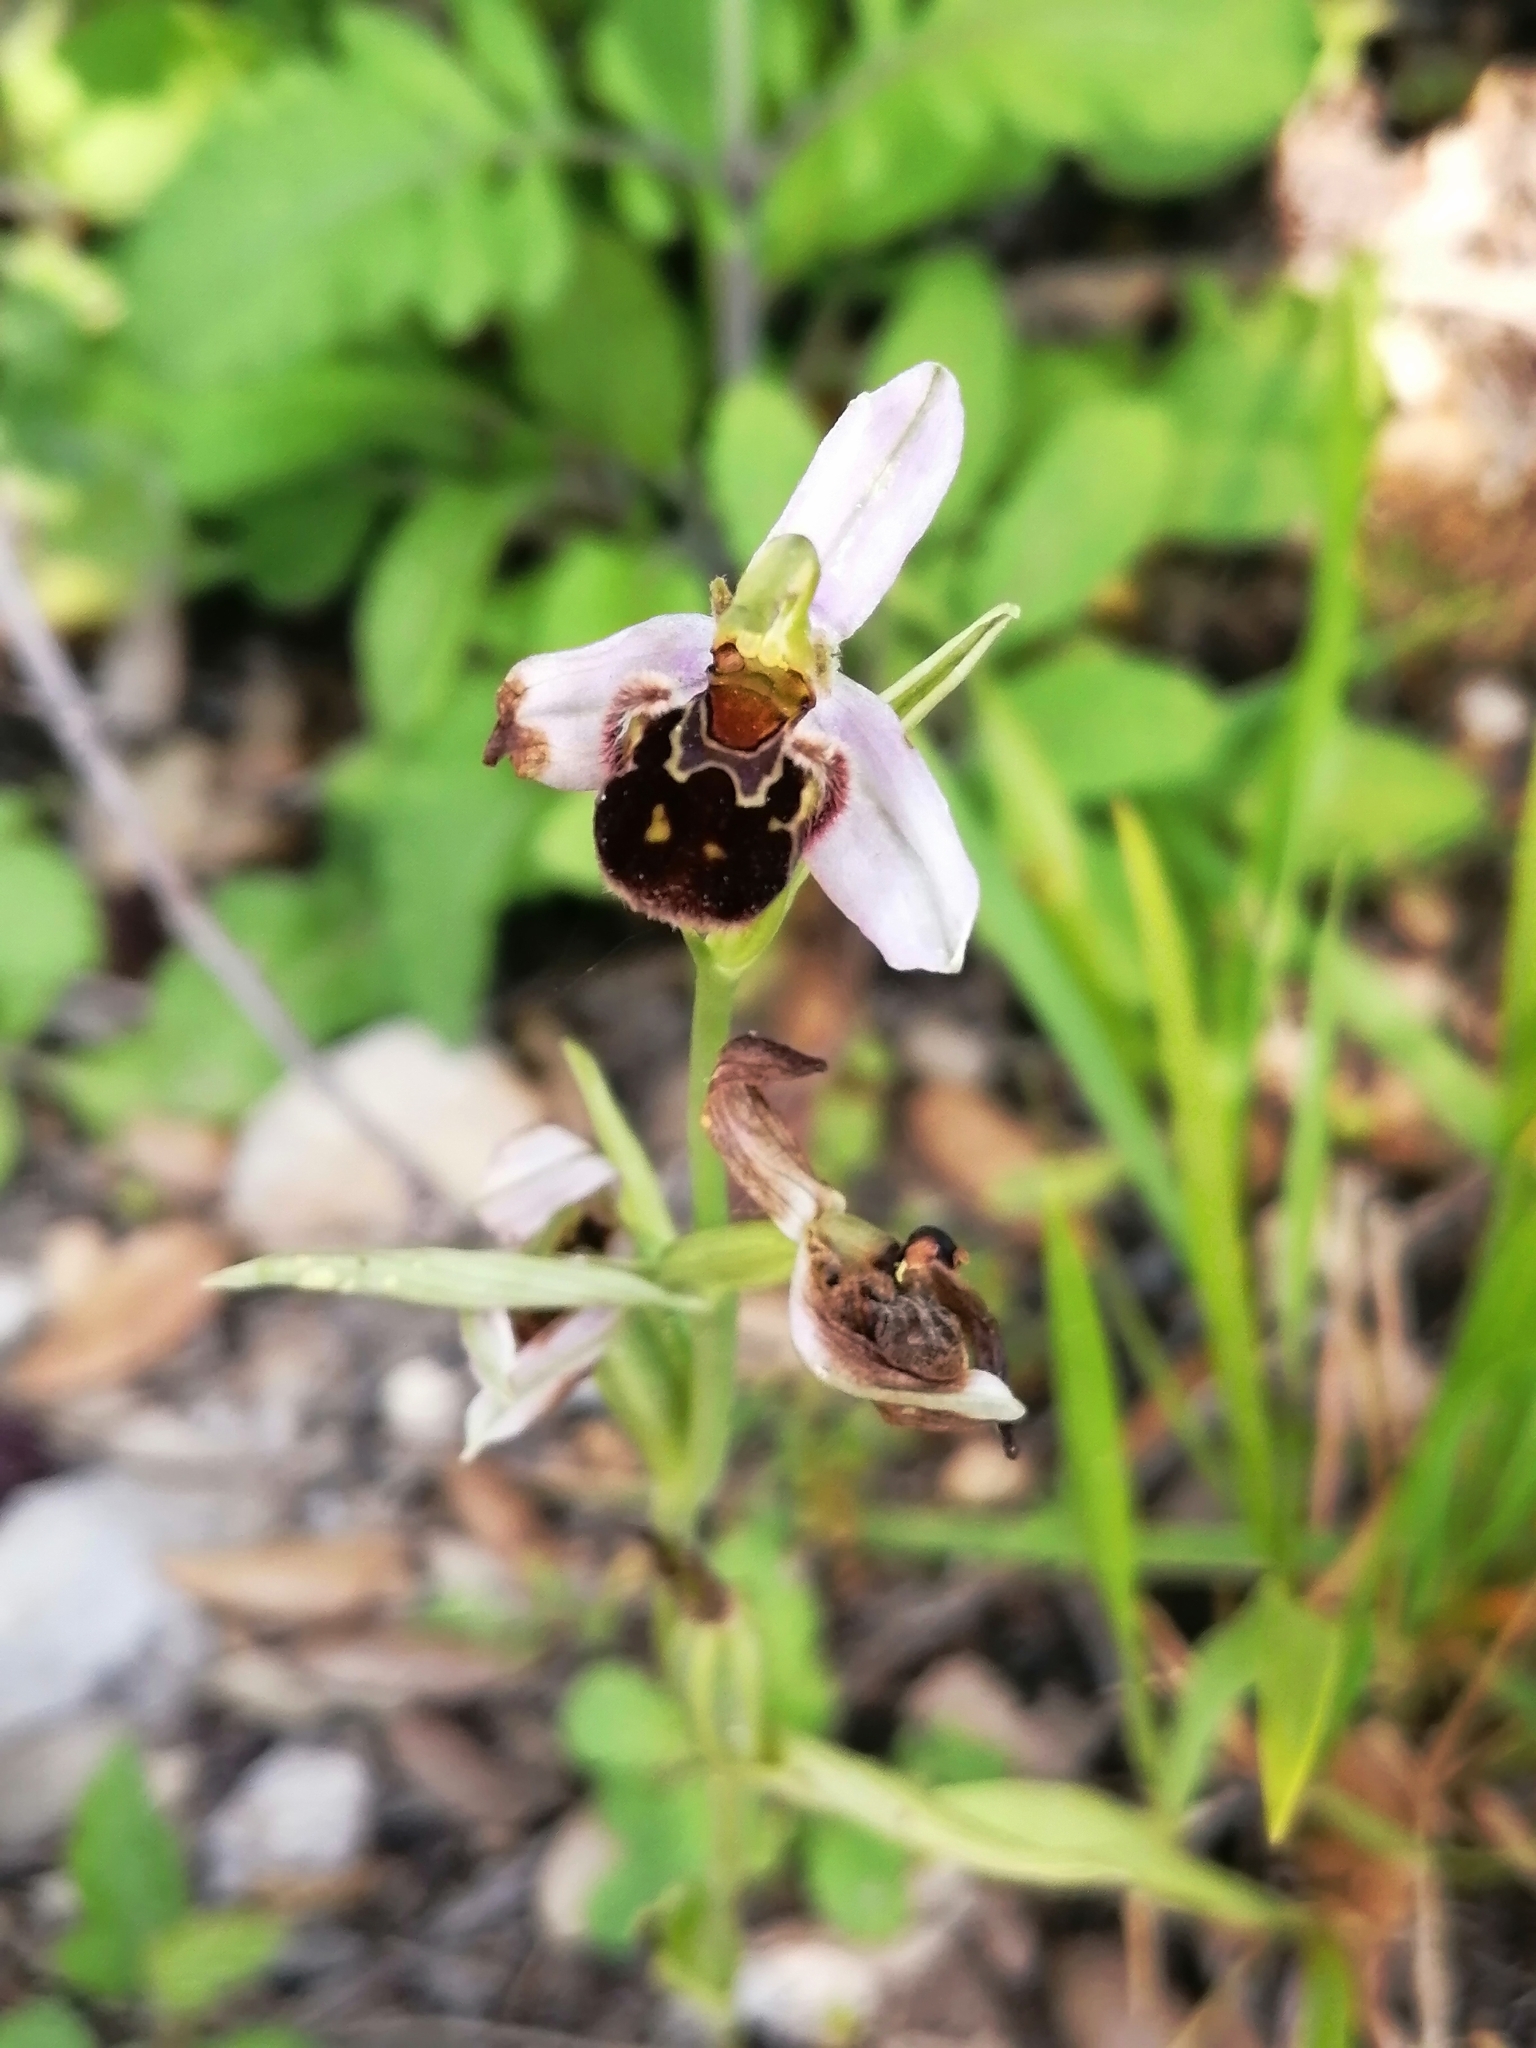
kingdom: Plantae
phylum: Tracheophyta
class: Liliopsida
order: Asparagales
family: Orchidaceae
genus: Ophrys
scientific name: Ophrys apifera
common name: Bee orchid
